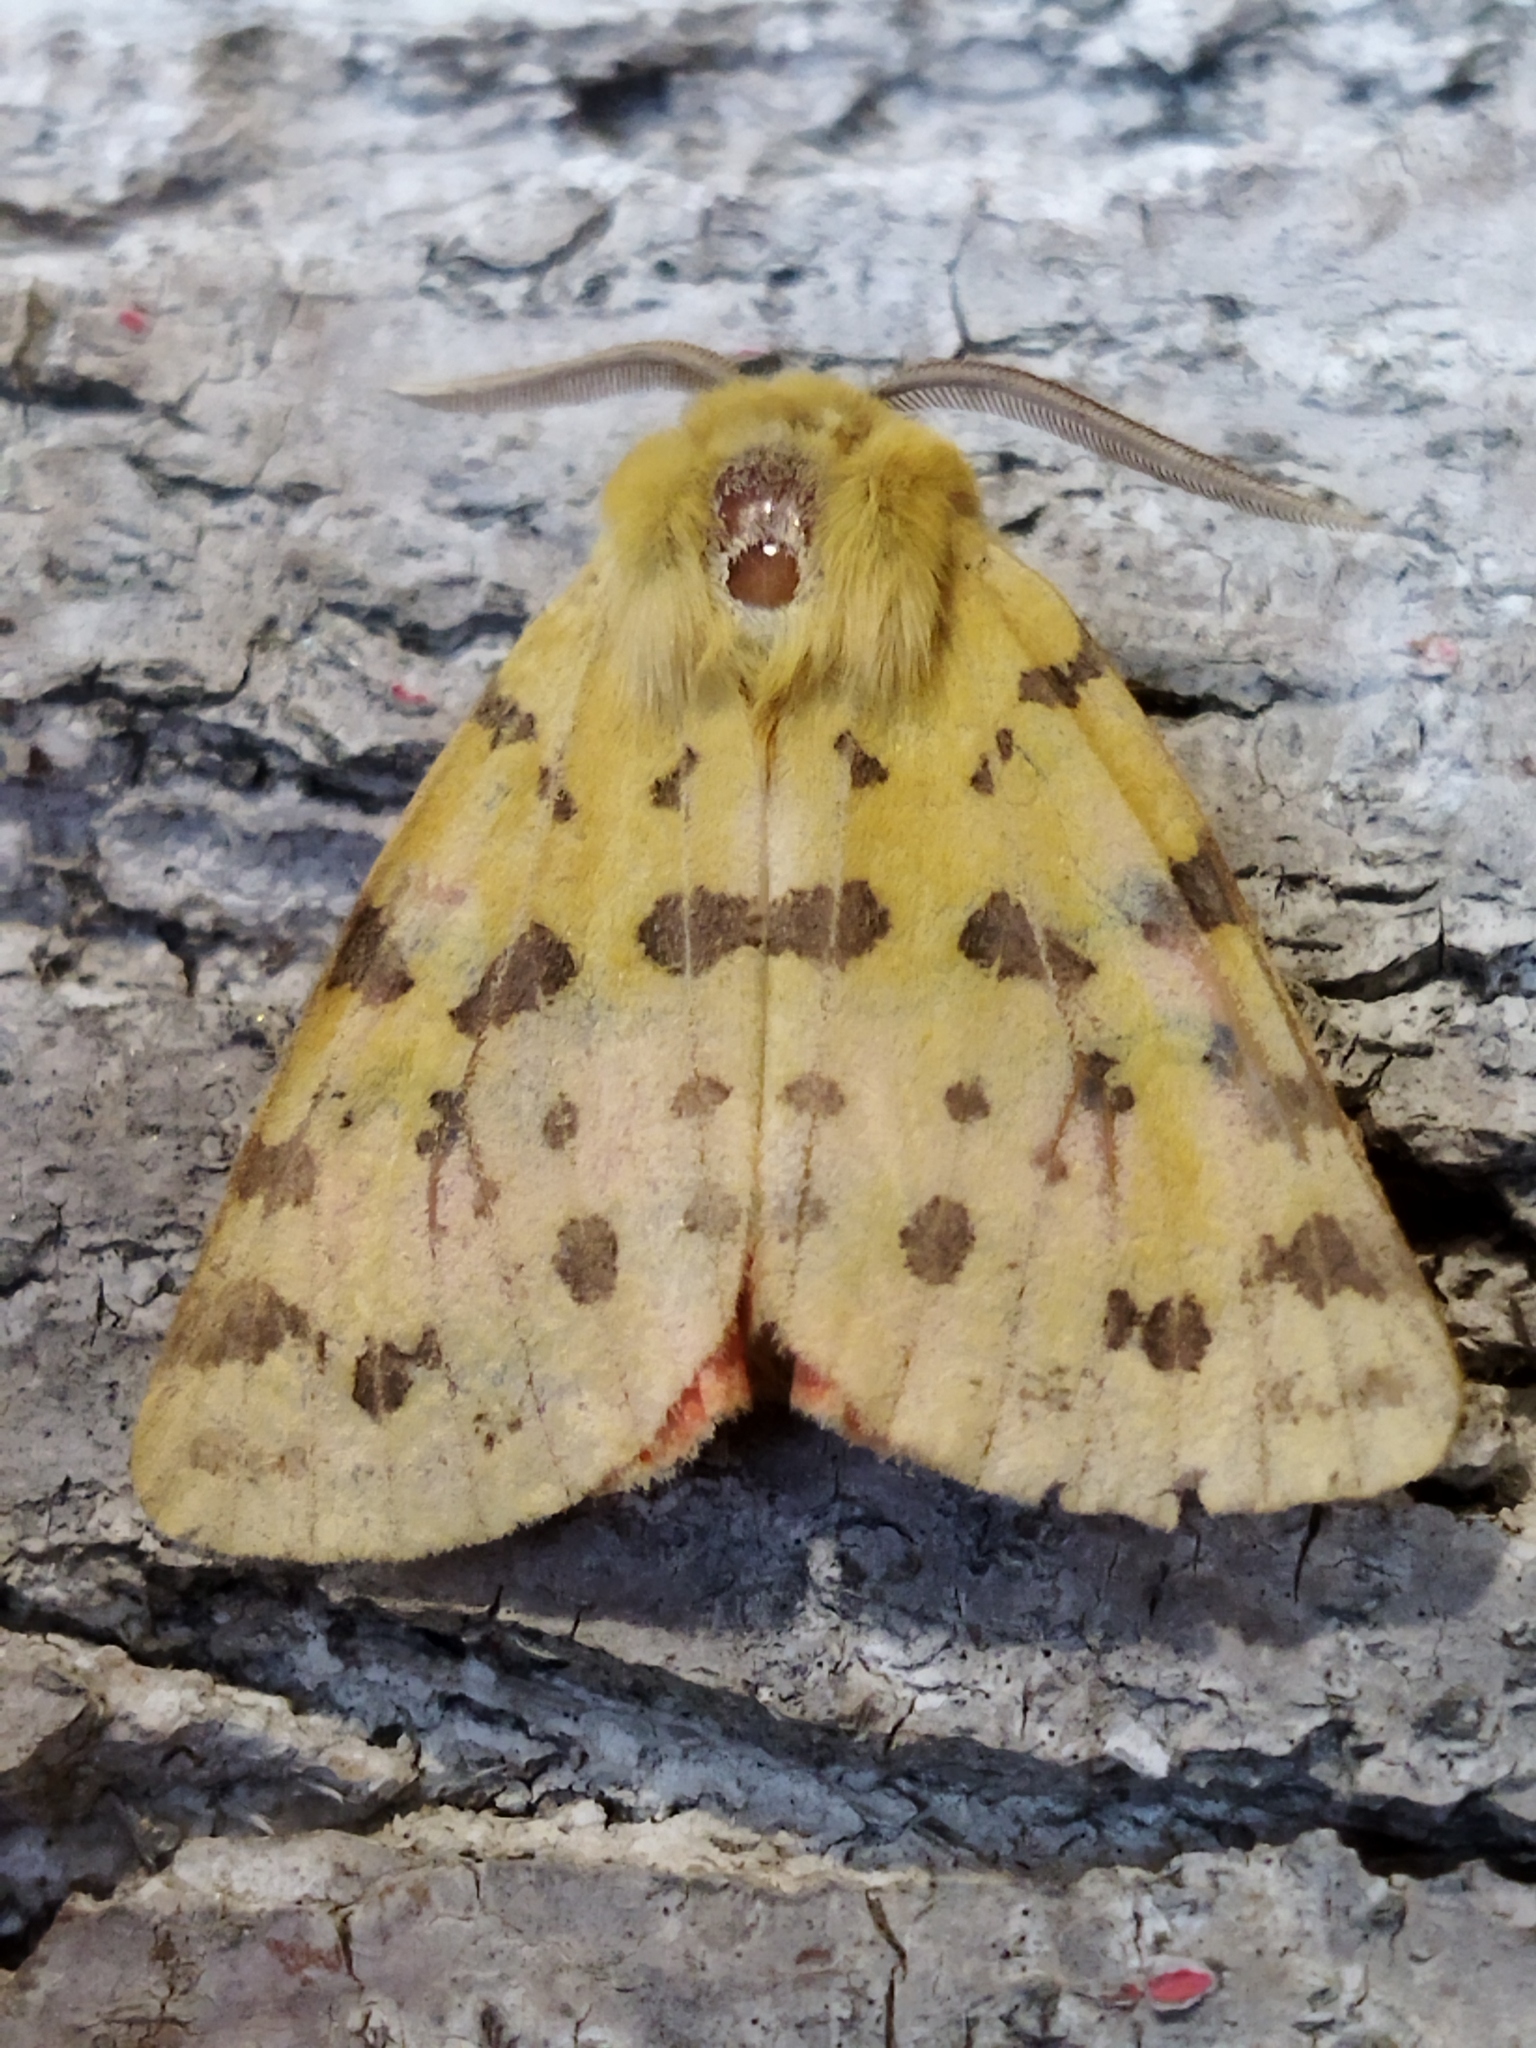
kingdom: Animalia
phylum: Arthropoda
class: Insecta
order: Lepidoptera
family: Erebidae
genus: Rhyparia
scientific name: Rhyparia purpurata
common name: Purple tiger
